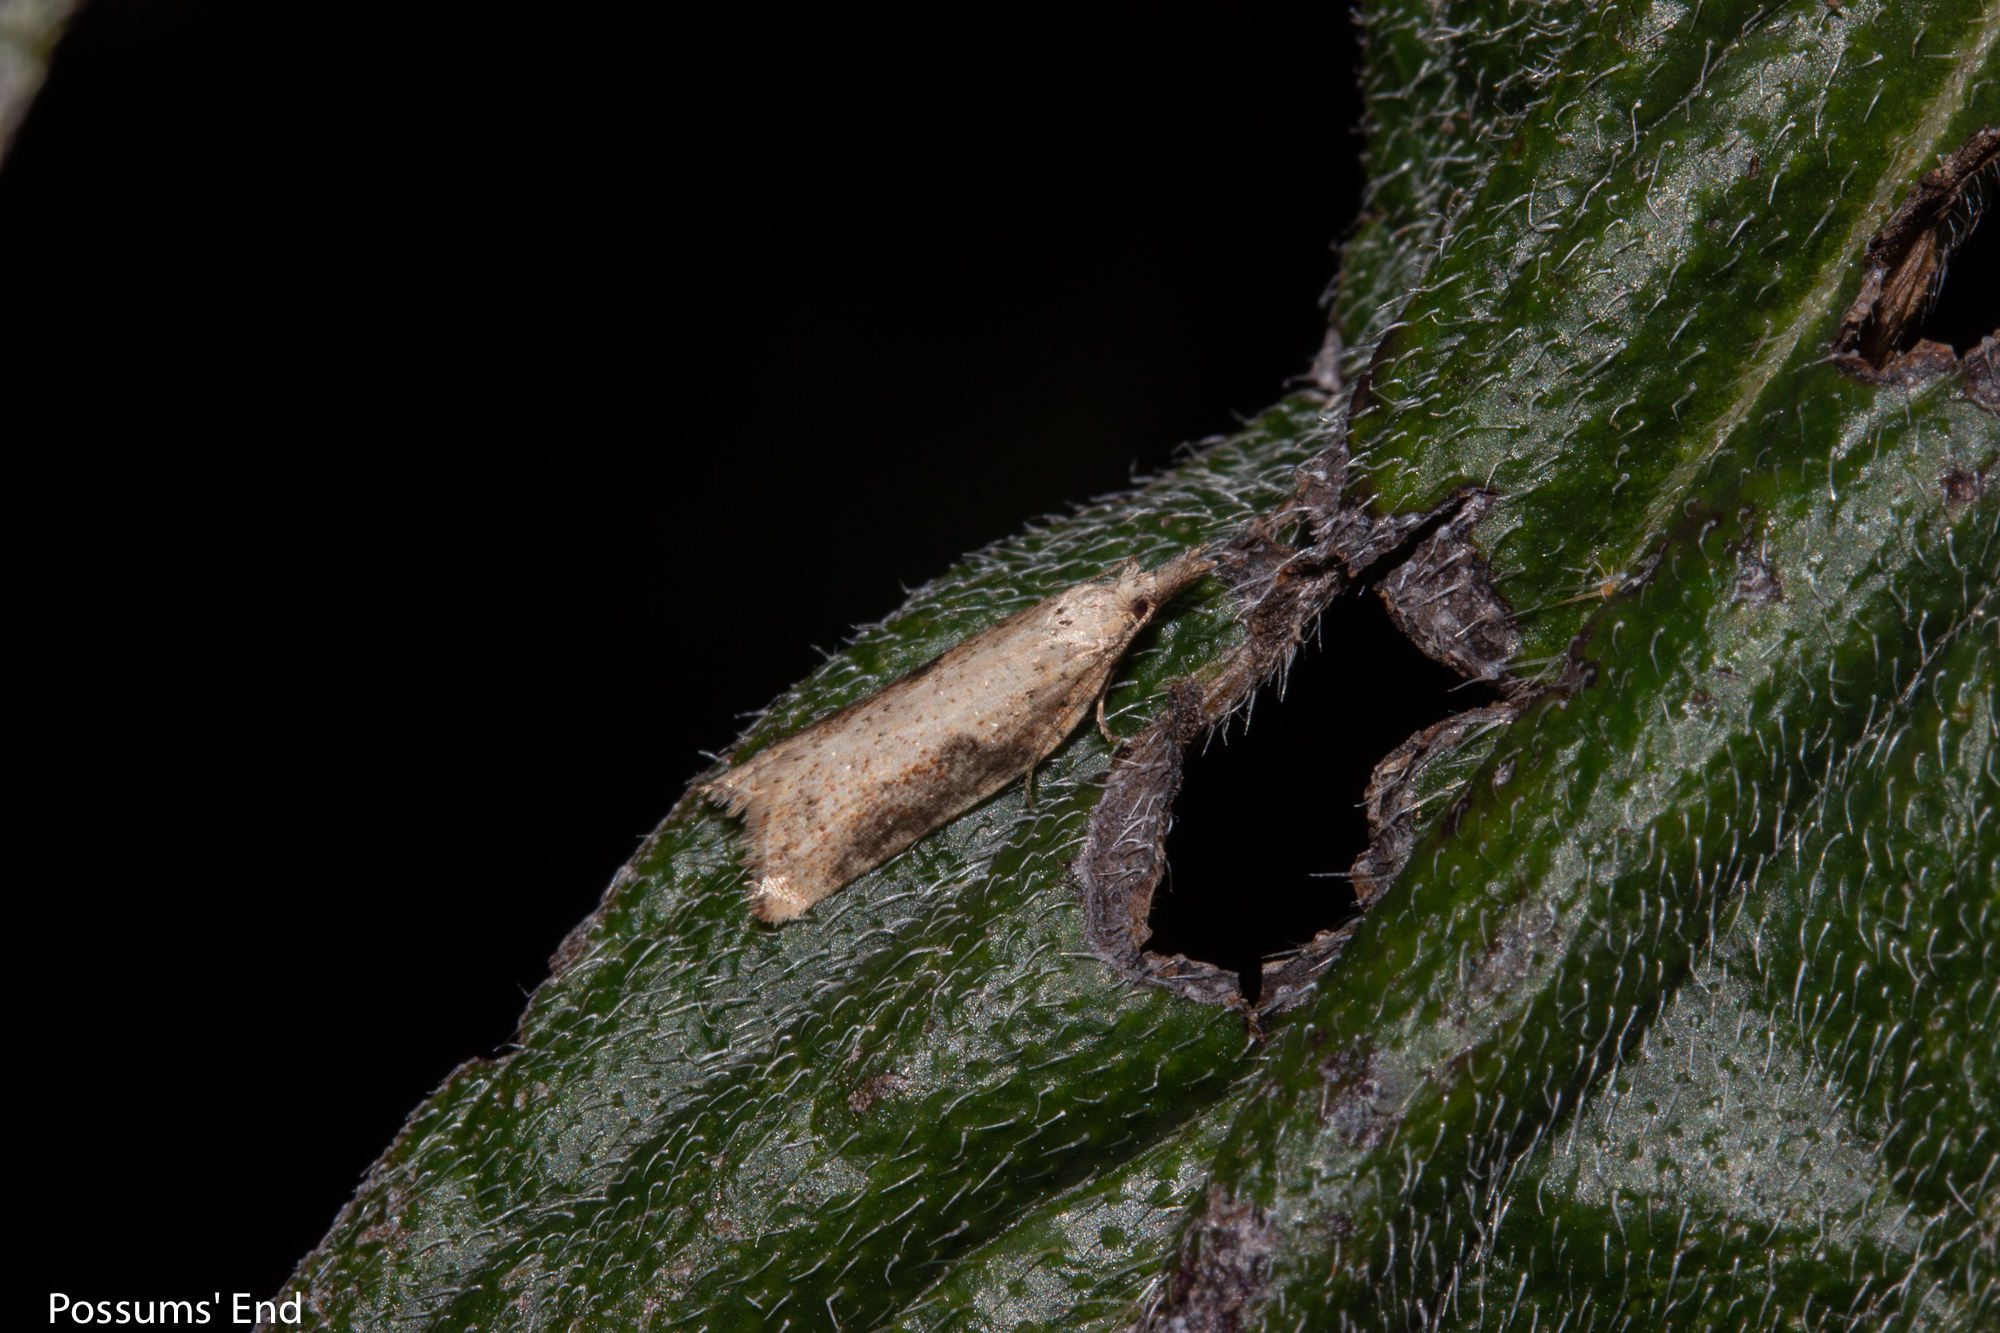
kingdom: Animalia
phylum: Arthropoda
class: Insecta
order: Lepidoptera
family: Tortricidae
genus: Apoctena
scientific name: Apoctena conditana
